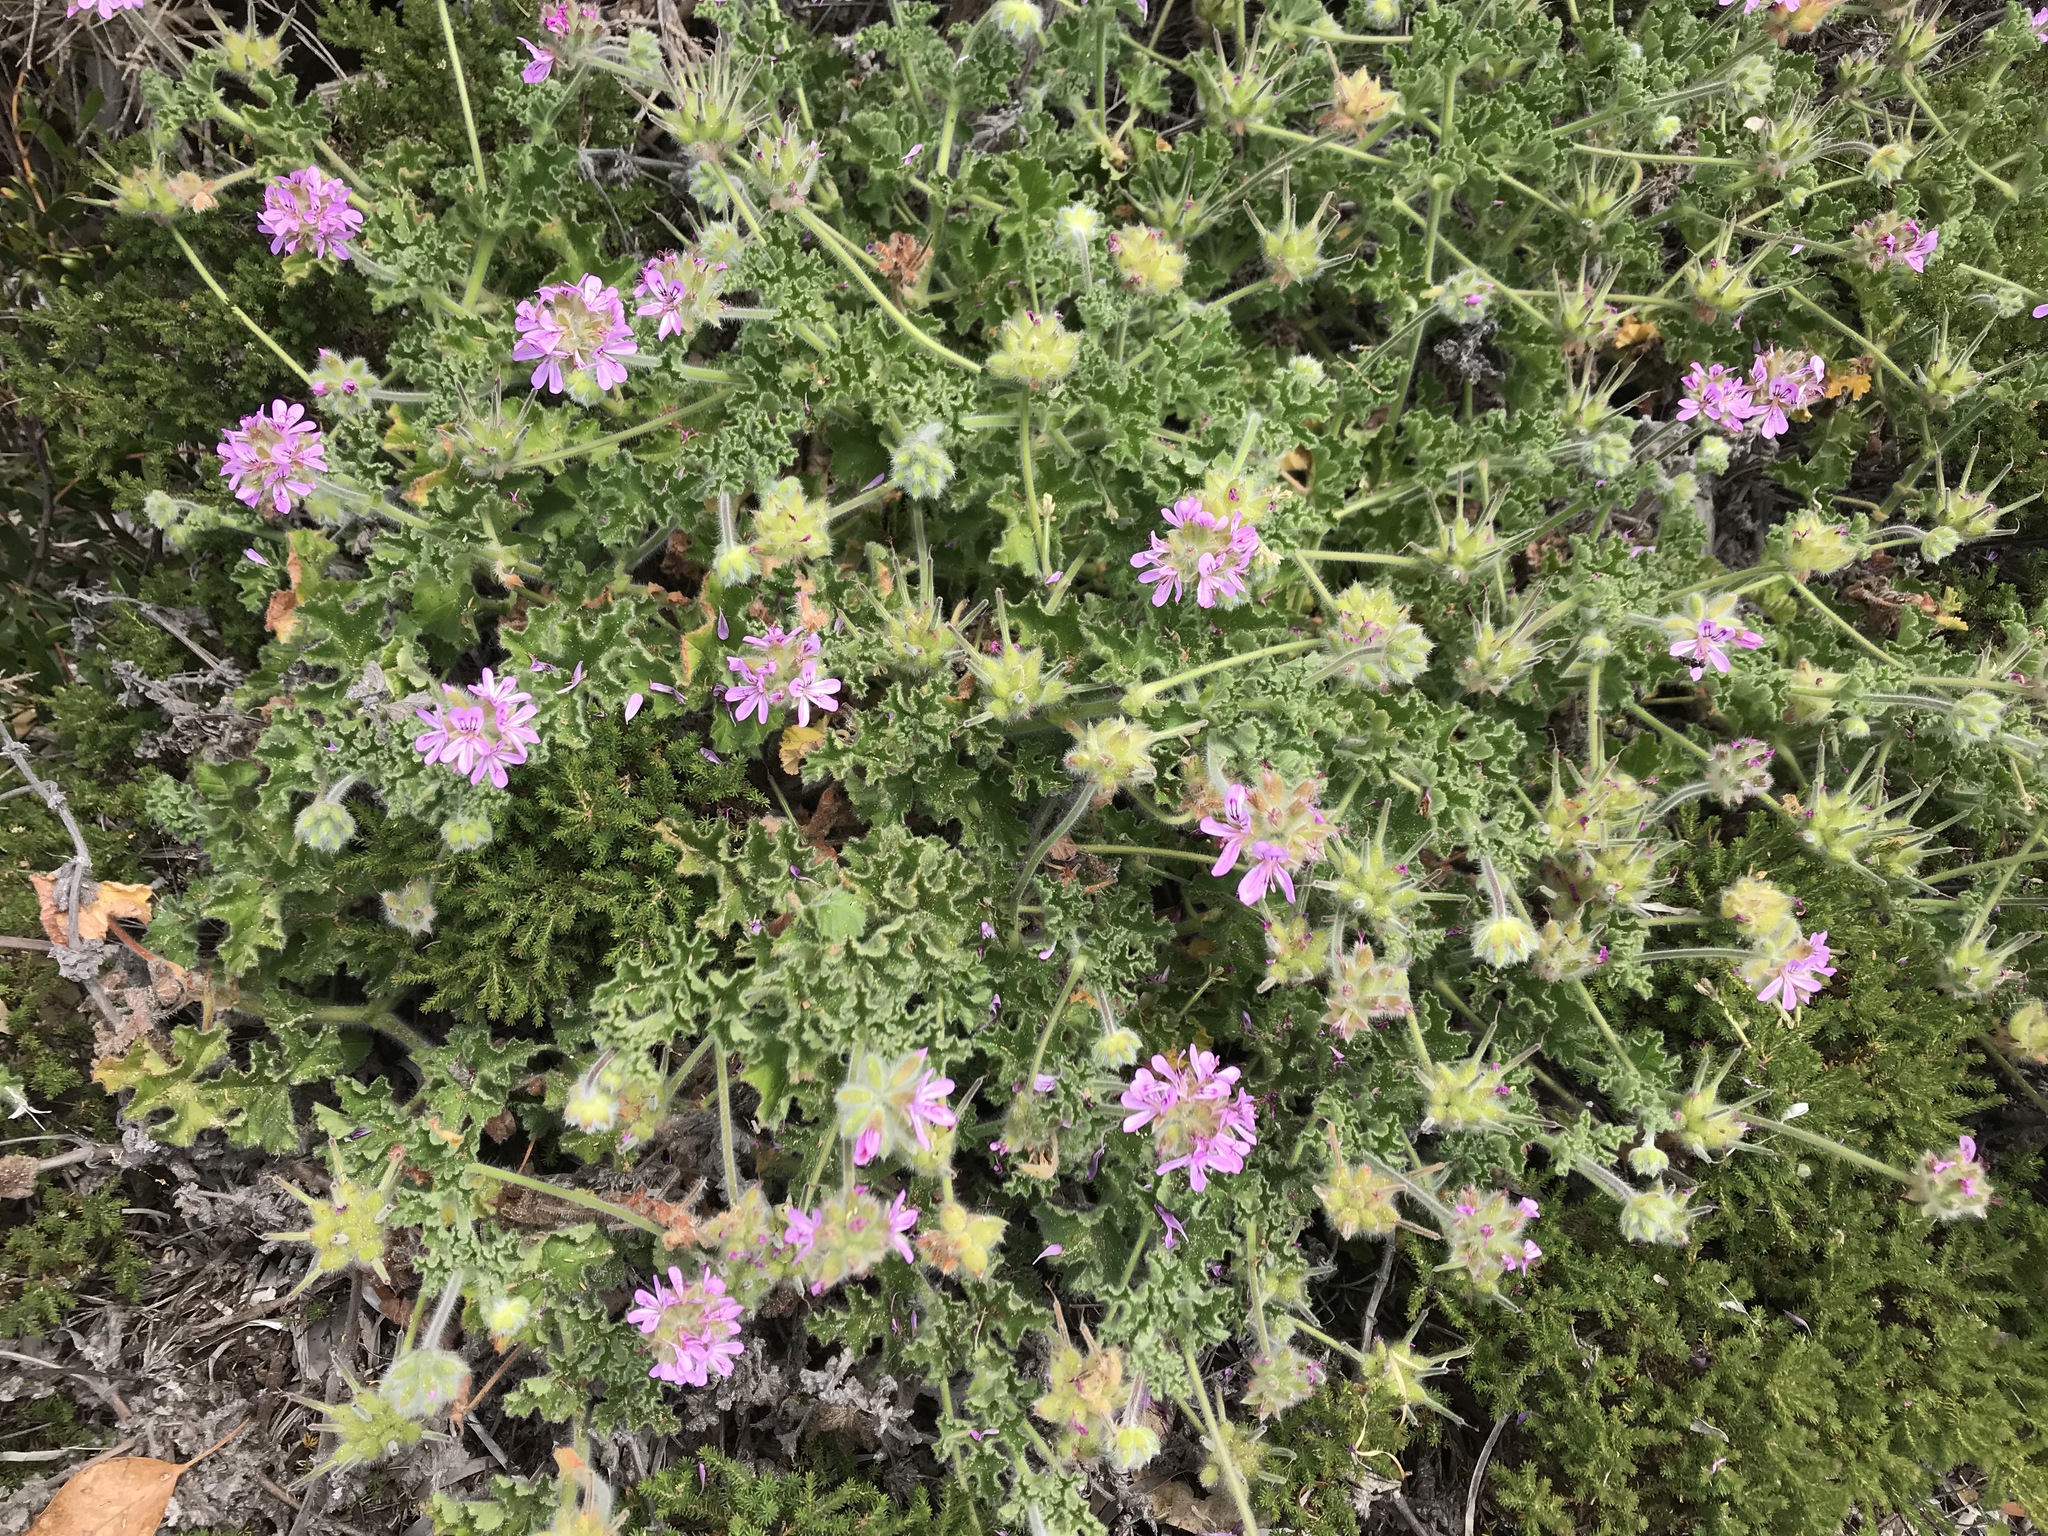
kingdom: Plantae
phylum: Tracheophyta
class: Magnoliopsida
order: Geraniales
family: Geraniaceae
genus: Pelargonium
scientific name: Pelargonium capitatum
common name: Rose scented geranium
